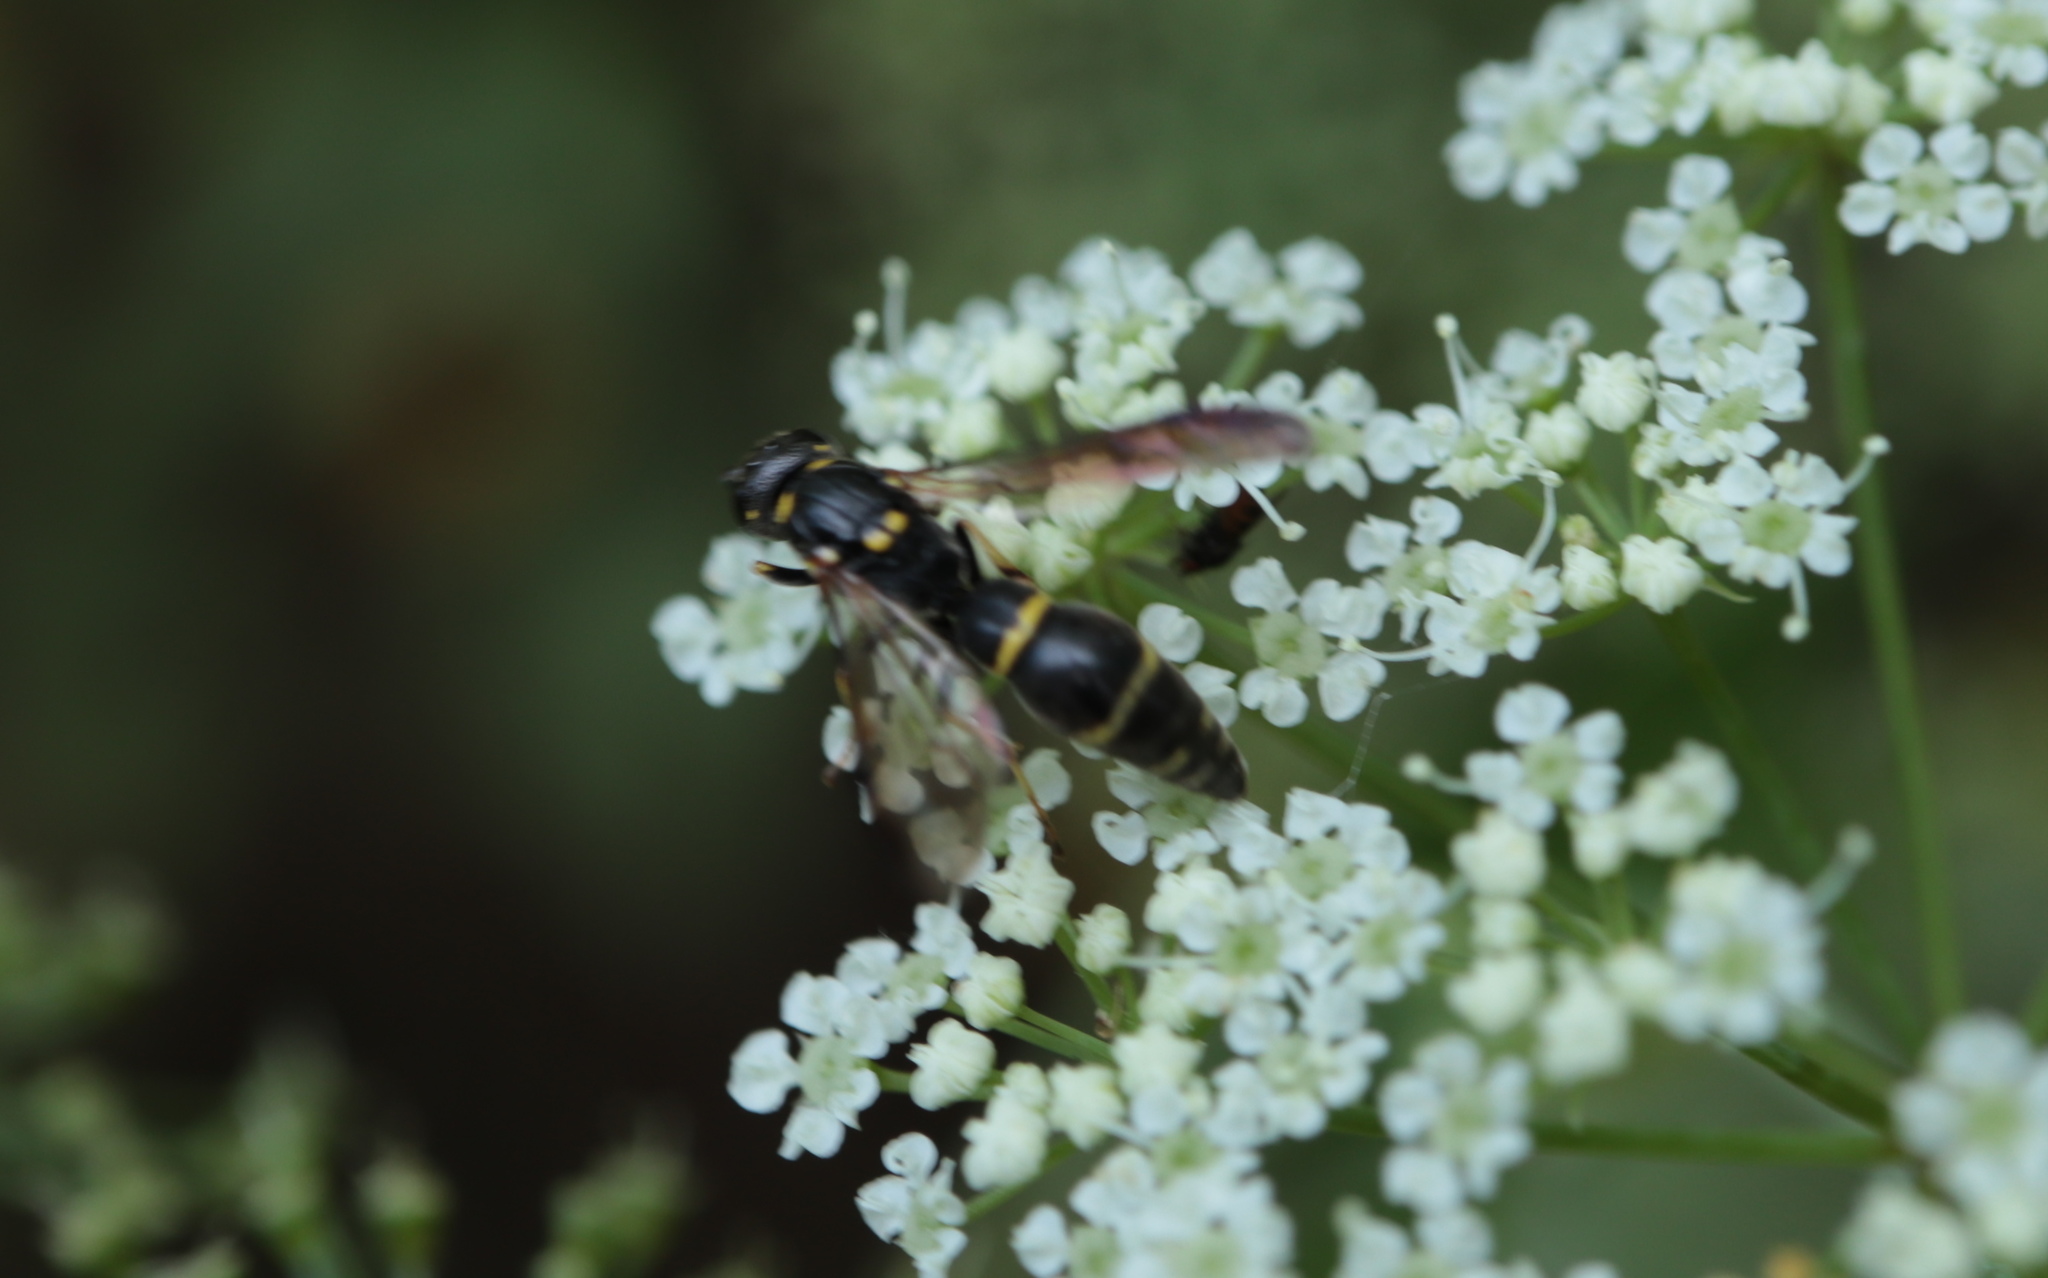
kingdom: Animalia
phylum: Arthropoda
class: Insecta
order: Hymenoptera
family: Eumenidae
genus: Symmorphus
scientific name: Symmorphus
